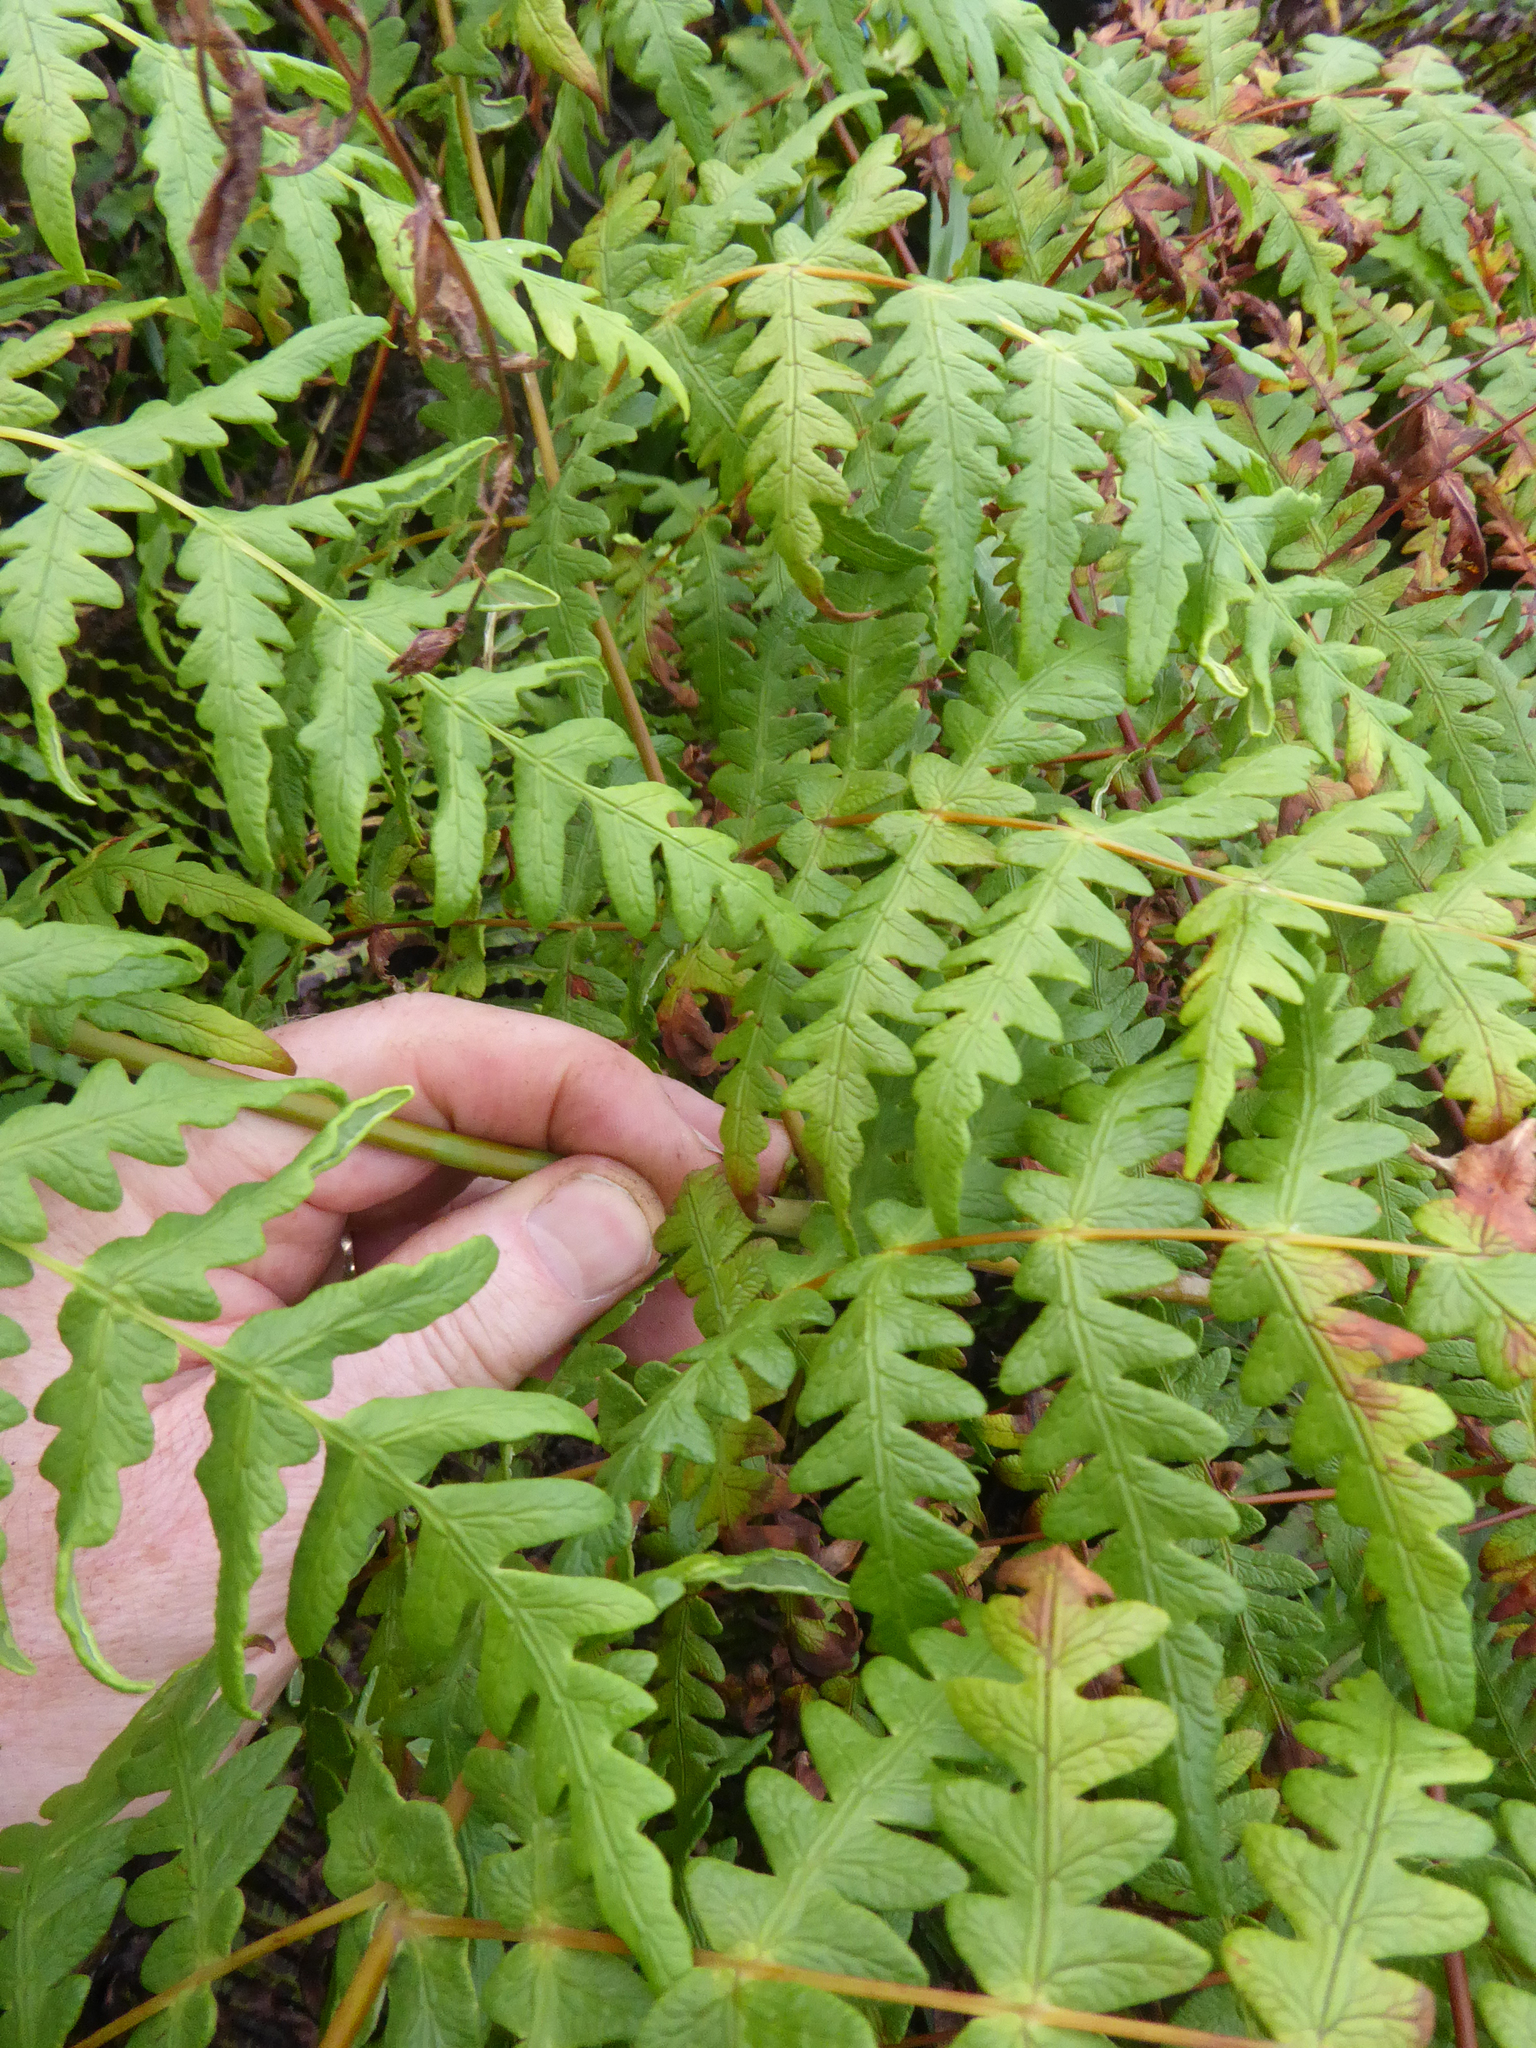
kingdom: Plantae
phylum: Tracheophyta
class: Polypodiopsida
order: Polypodiales
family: Dennstaedtiaceae
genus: Histiopteris
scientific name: Histiopteris incisa
